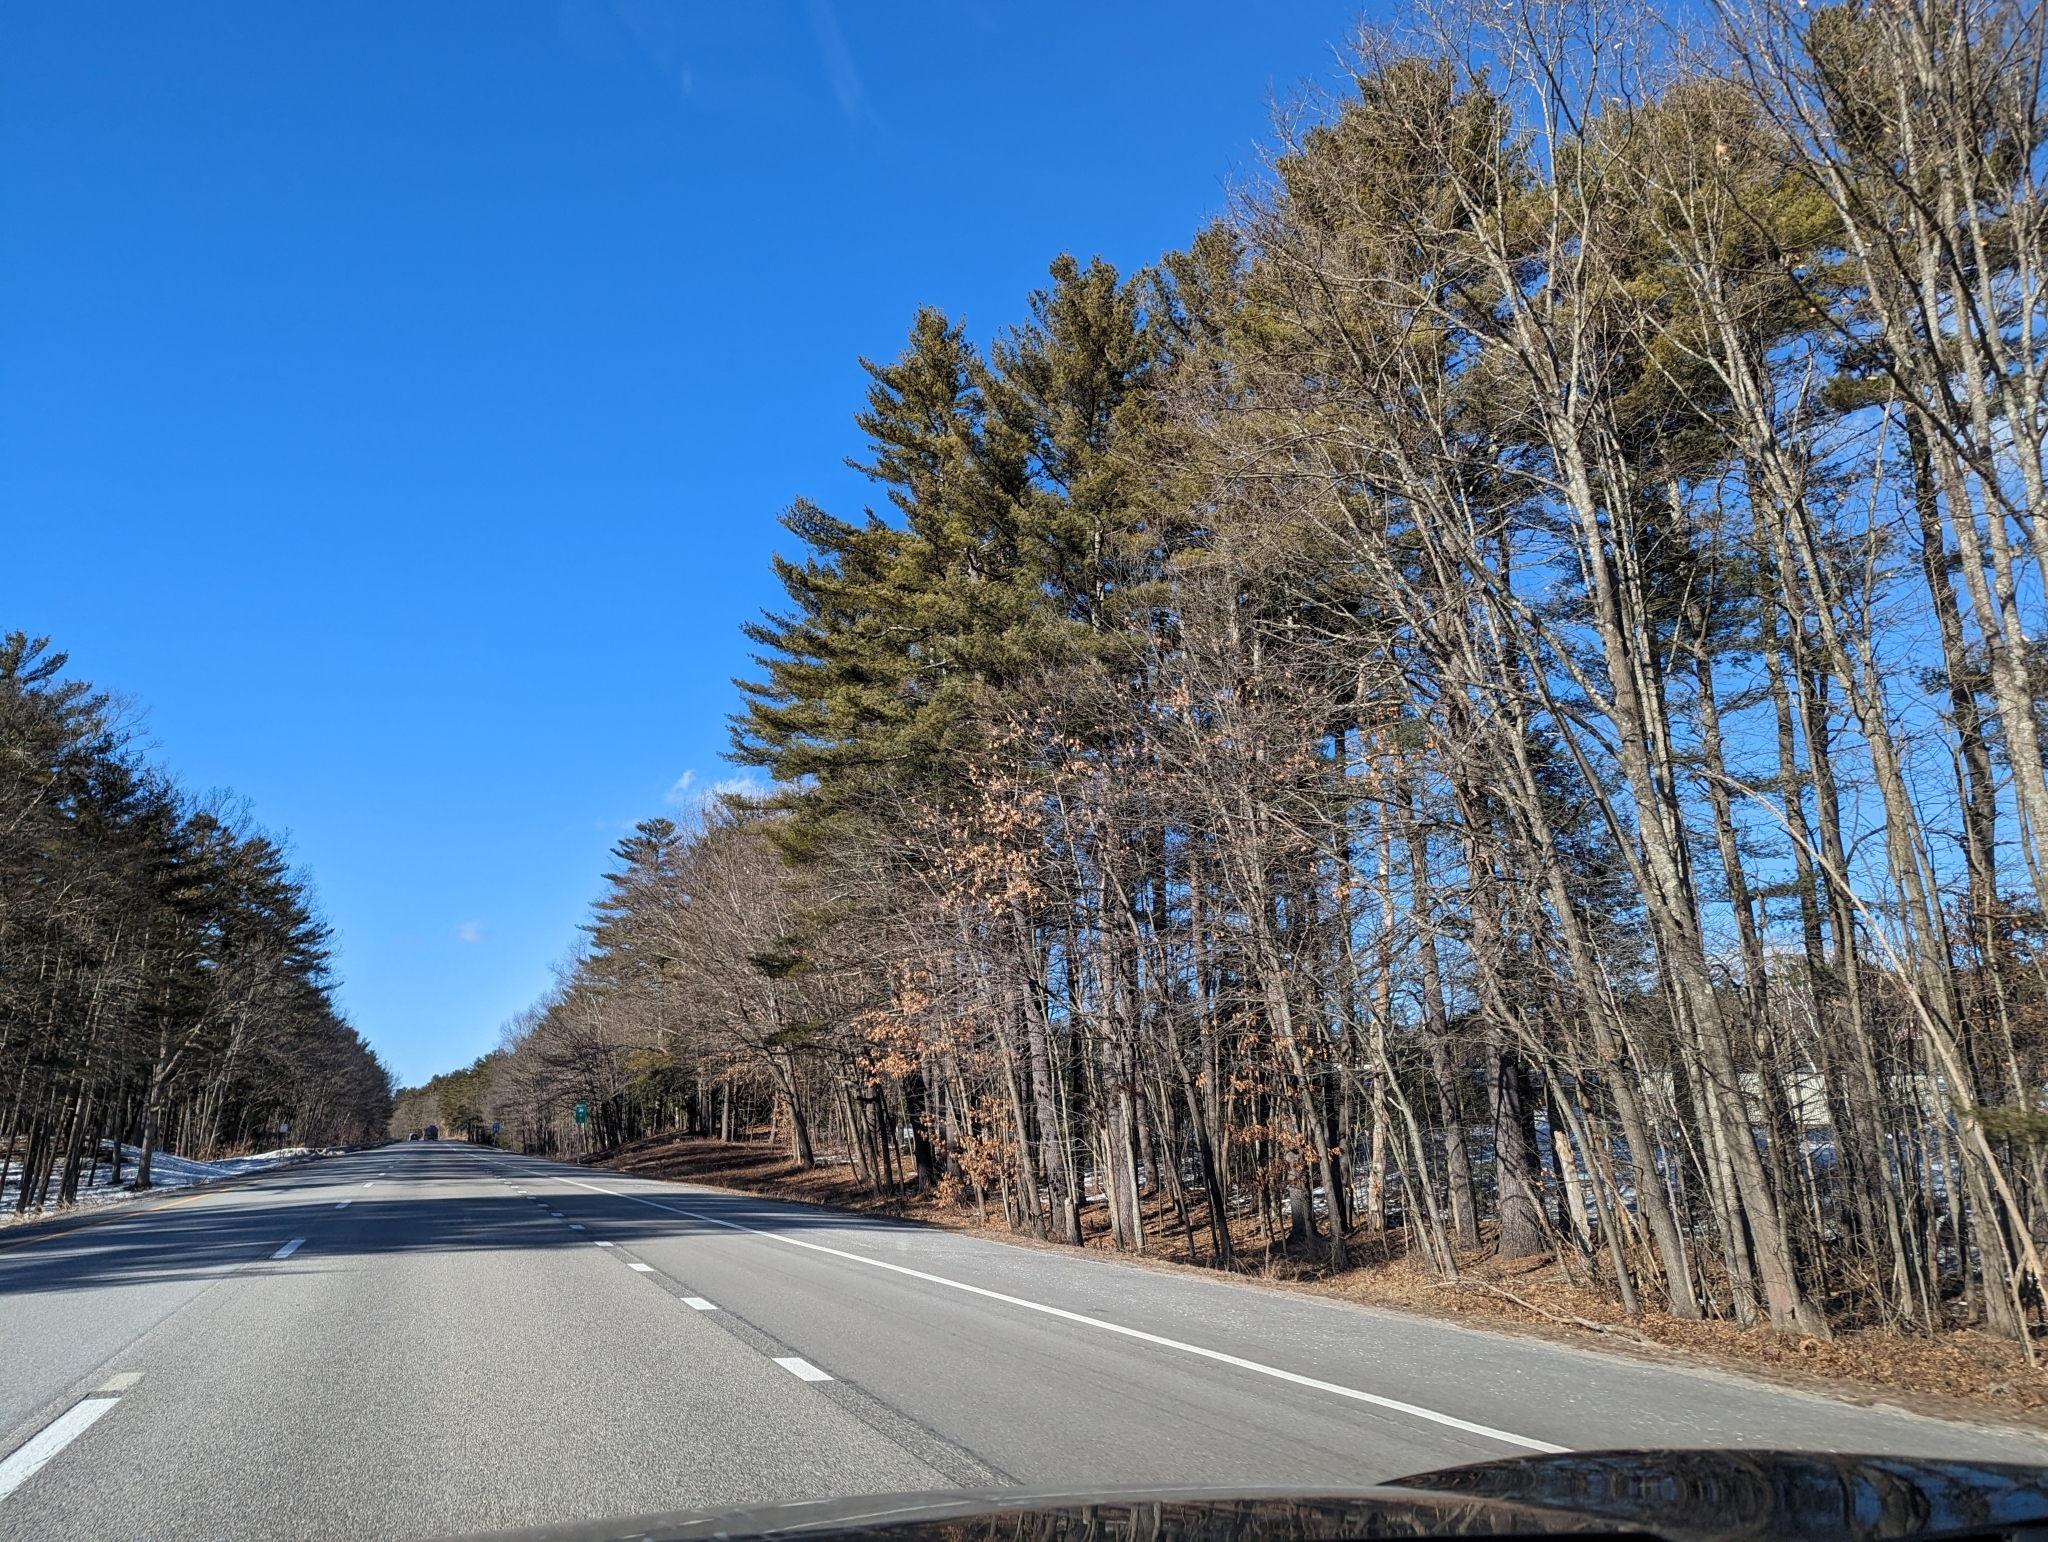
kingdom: Plantae
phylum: Tracheophyta
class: Pinopsida
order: Pinales
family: Pinaceae
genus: Pinus
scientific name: Pinus strobus
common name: Weymouth pine
